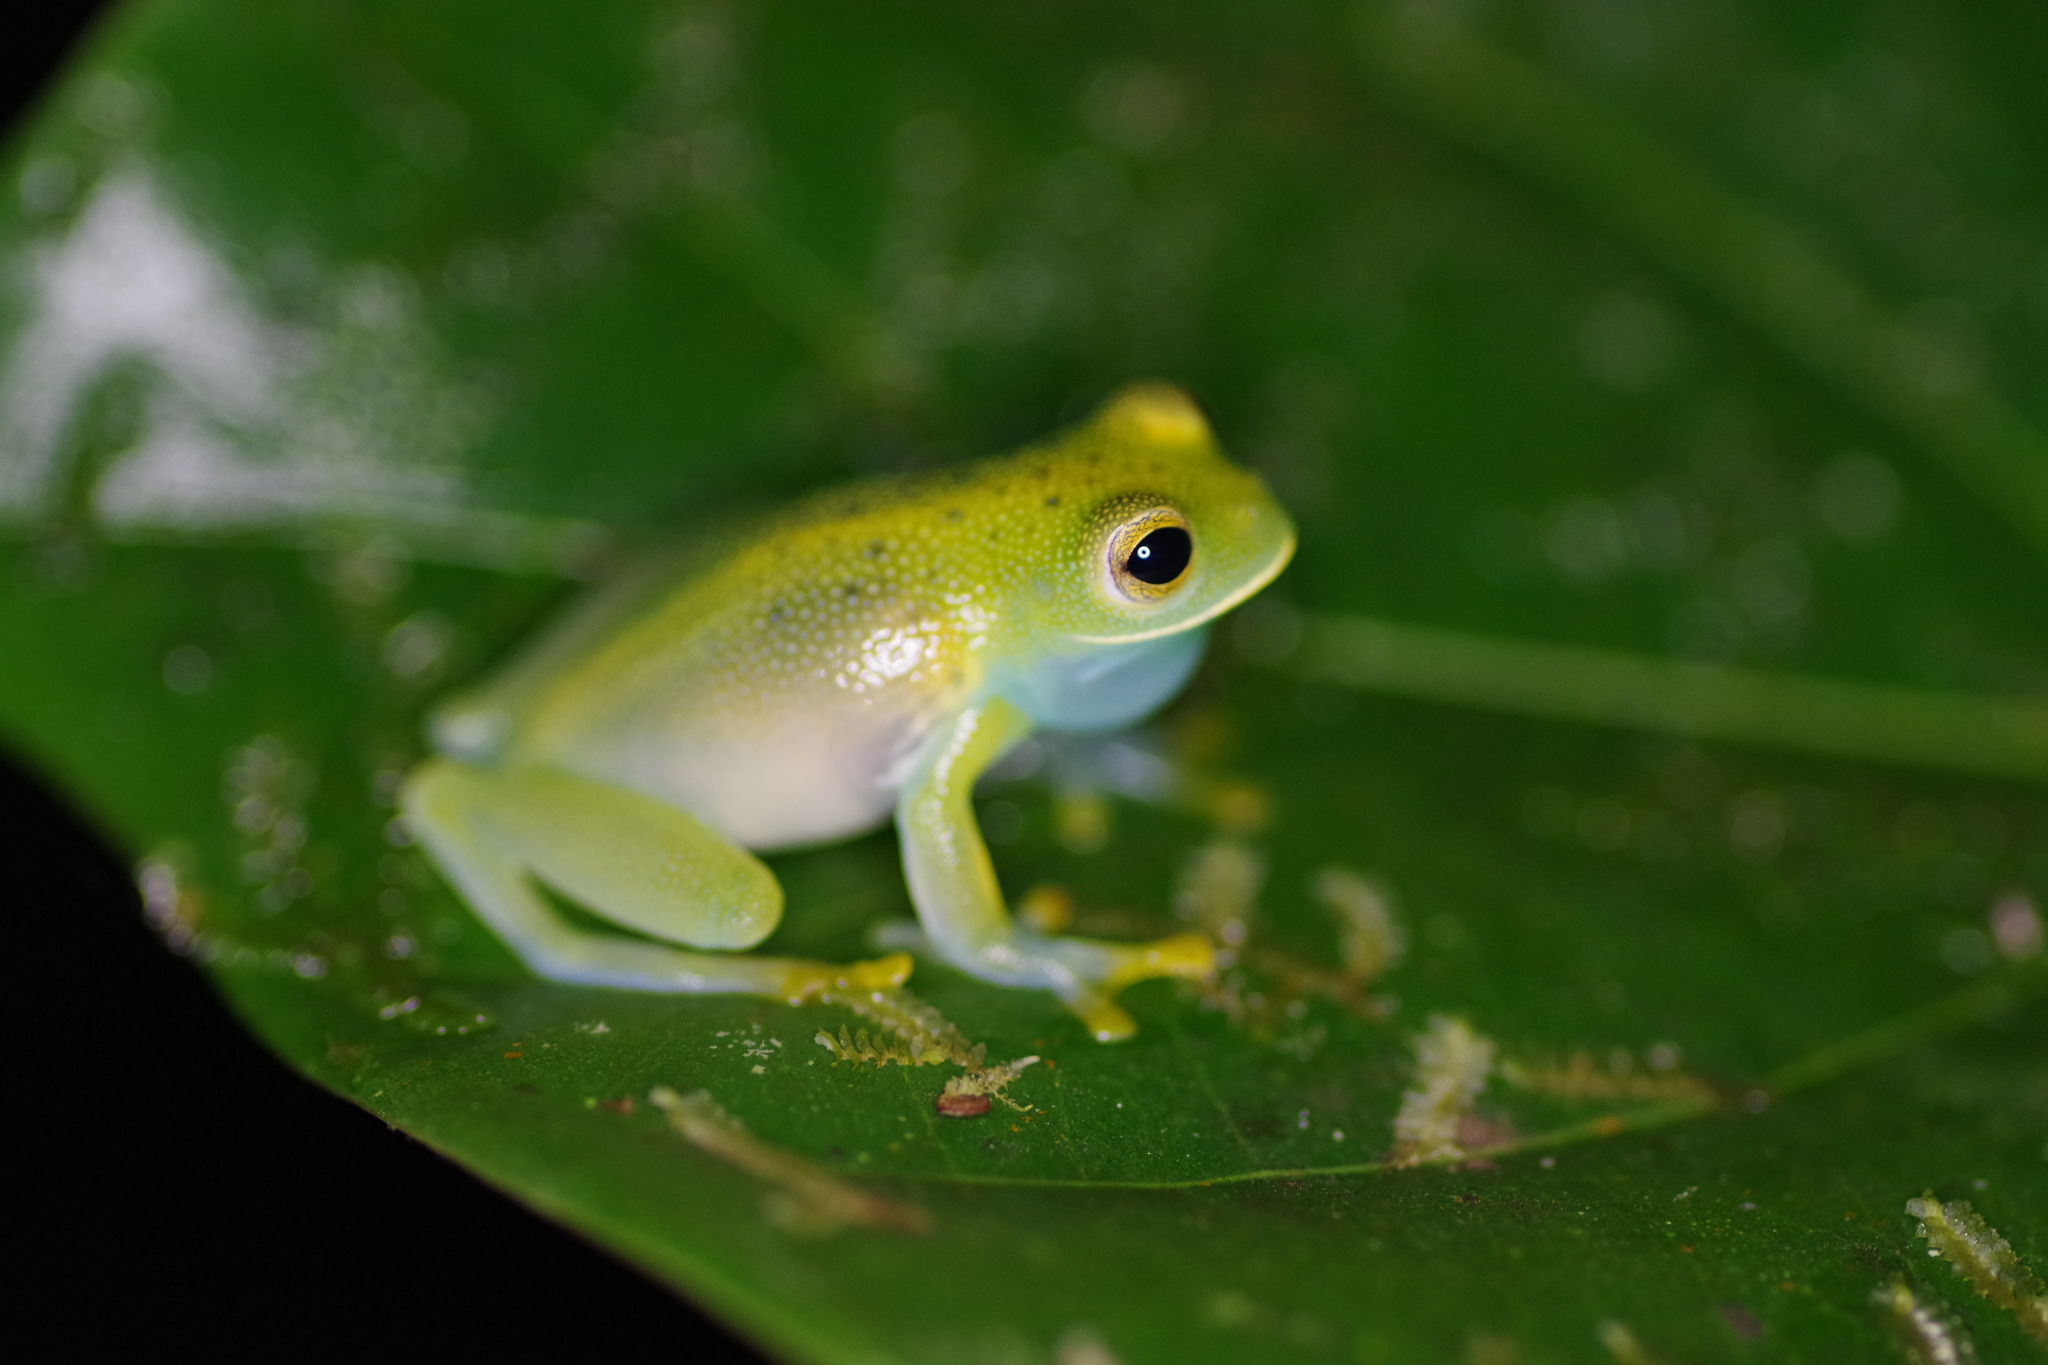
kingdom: Animalia
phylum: Chordata
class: Amphibia
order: Anura
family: Centrolenidae
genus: Cochranella
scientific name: Cochranella granulosa
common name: Grainy cochran frog
